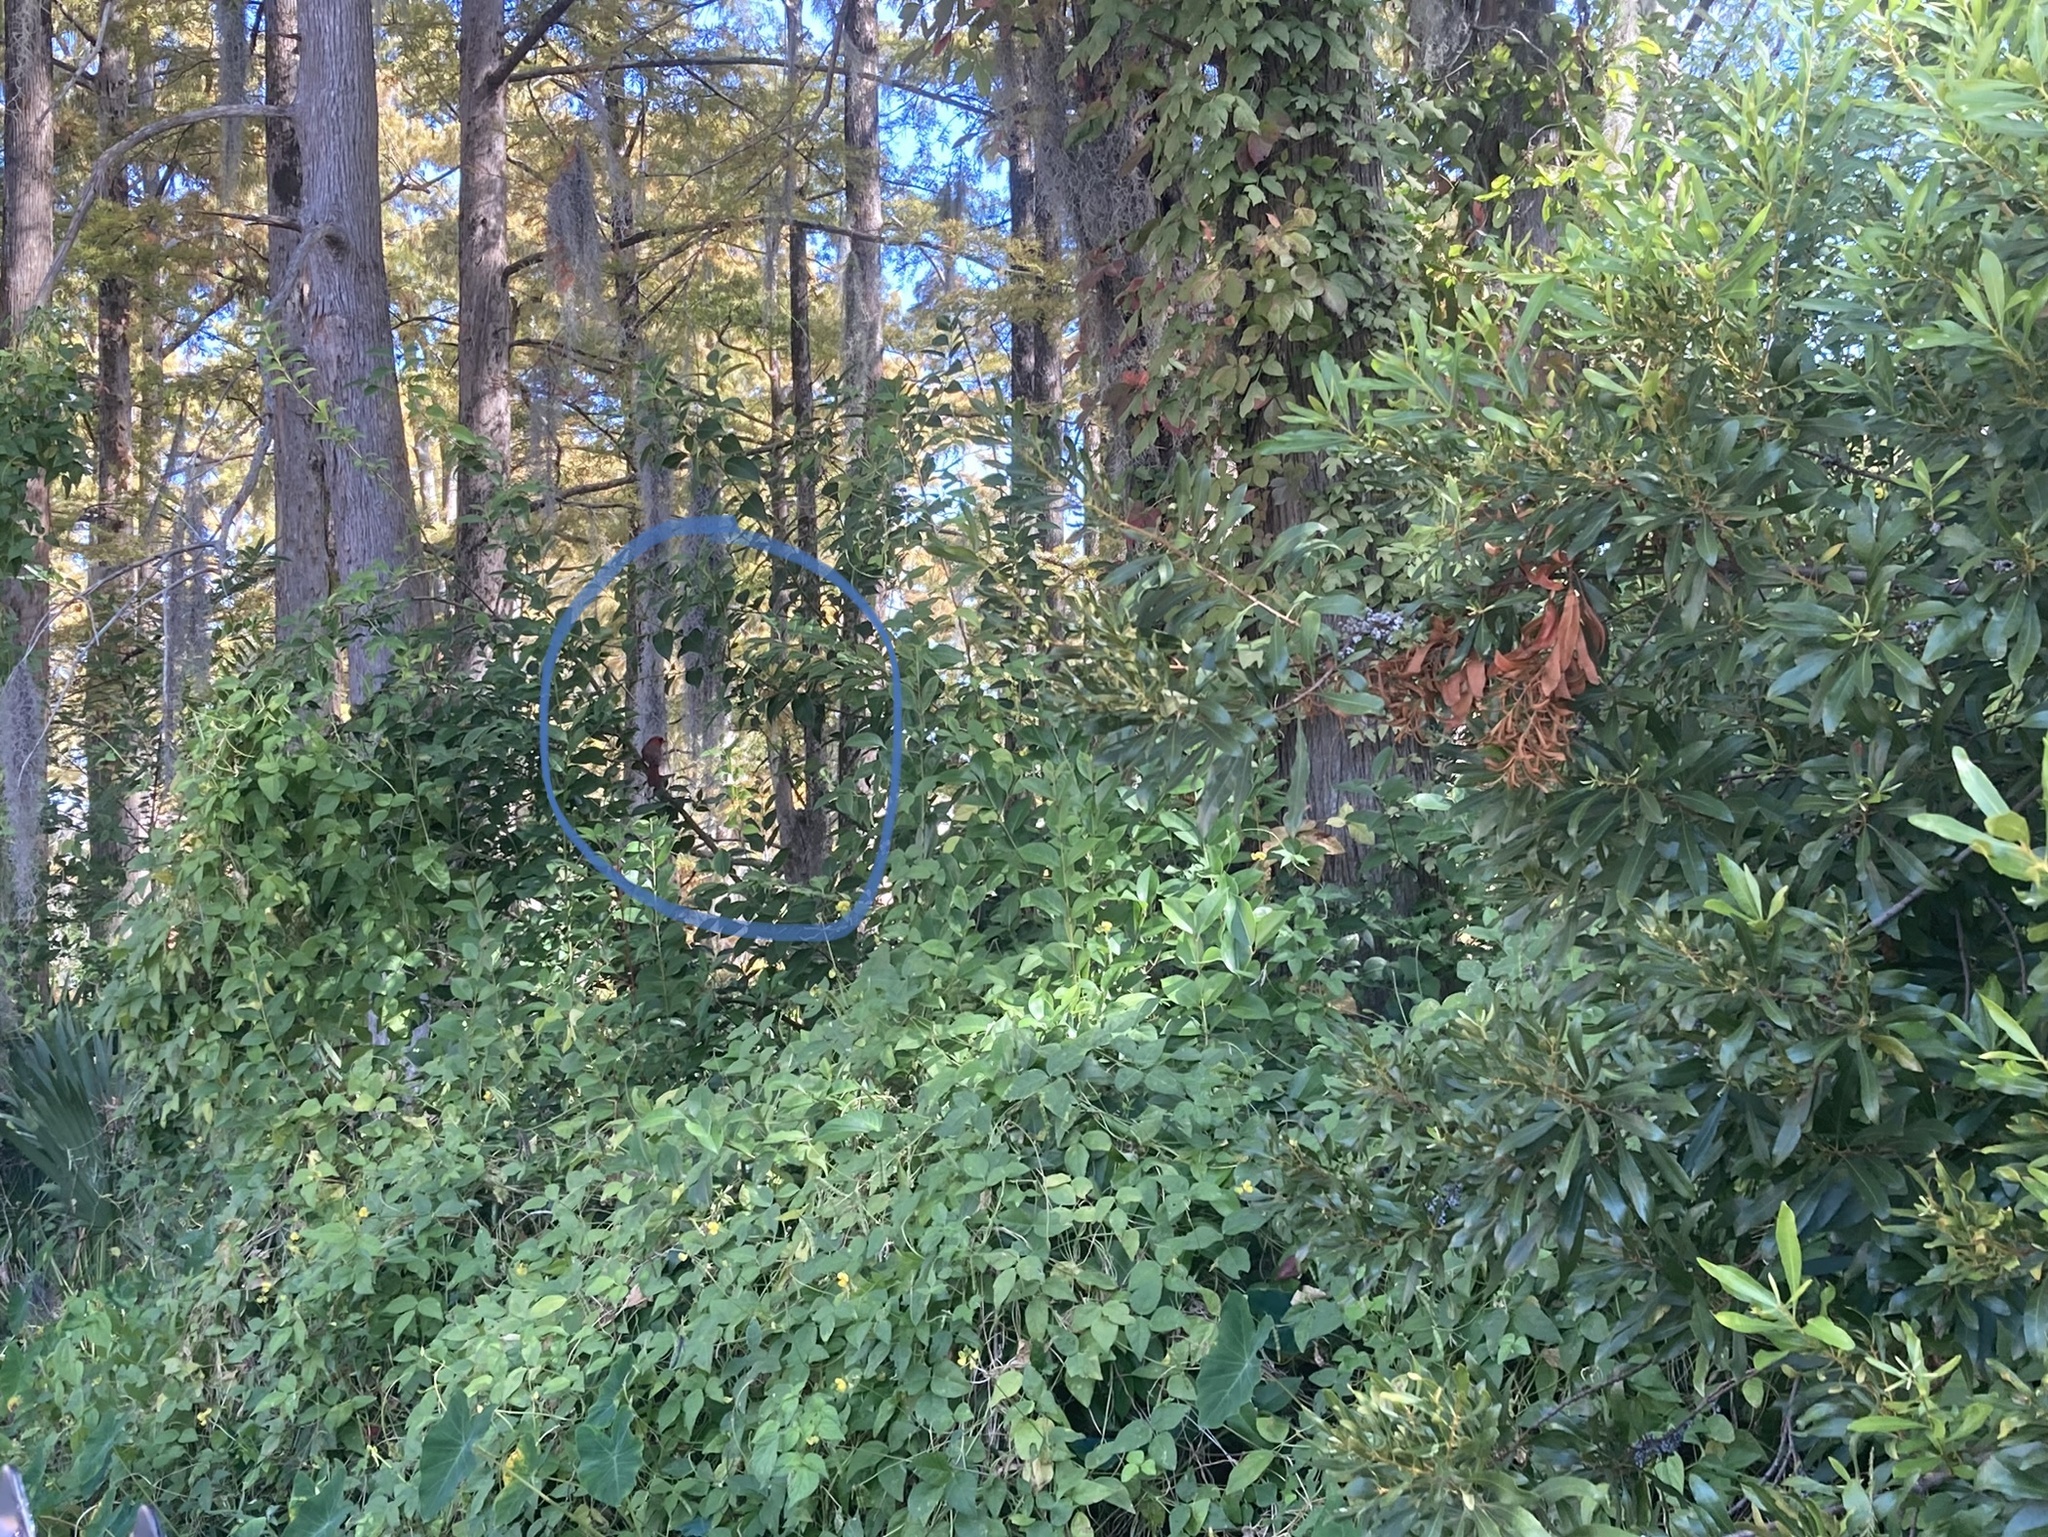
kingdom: Animalia
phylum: Chordata
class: Aves
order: Passeriformes
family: Cardinalidae
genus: Cardinalis
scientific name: Cardinalis cardinalis
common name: Northern cardinal
